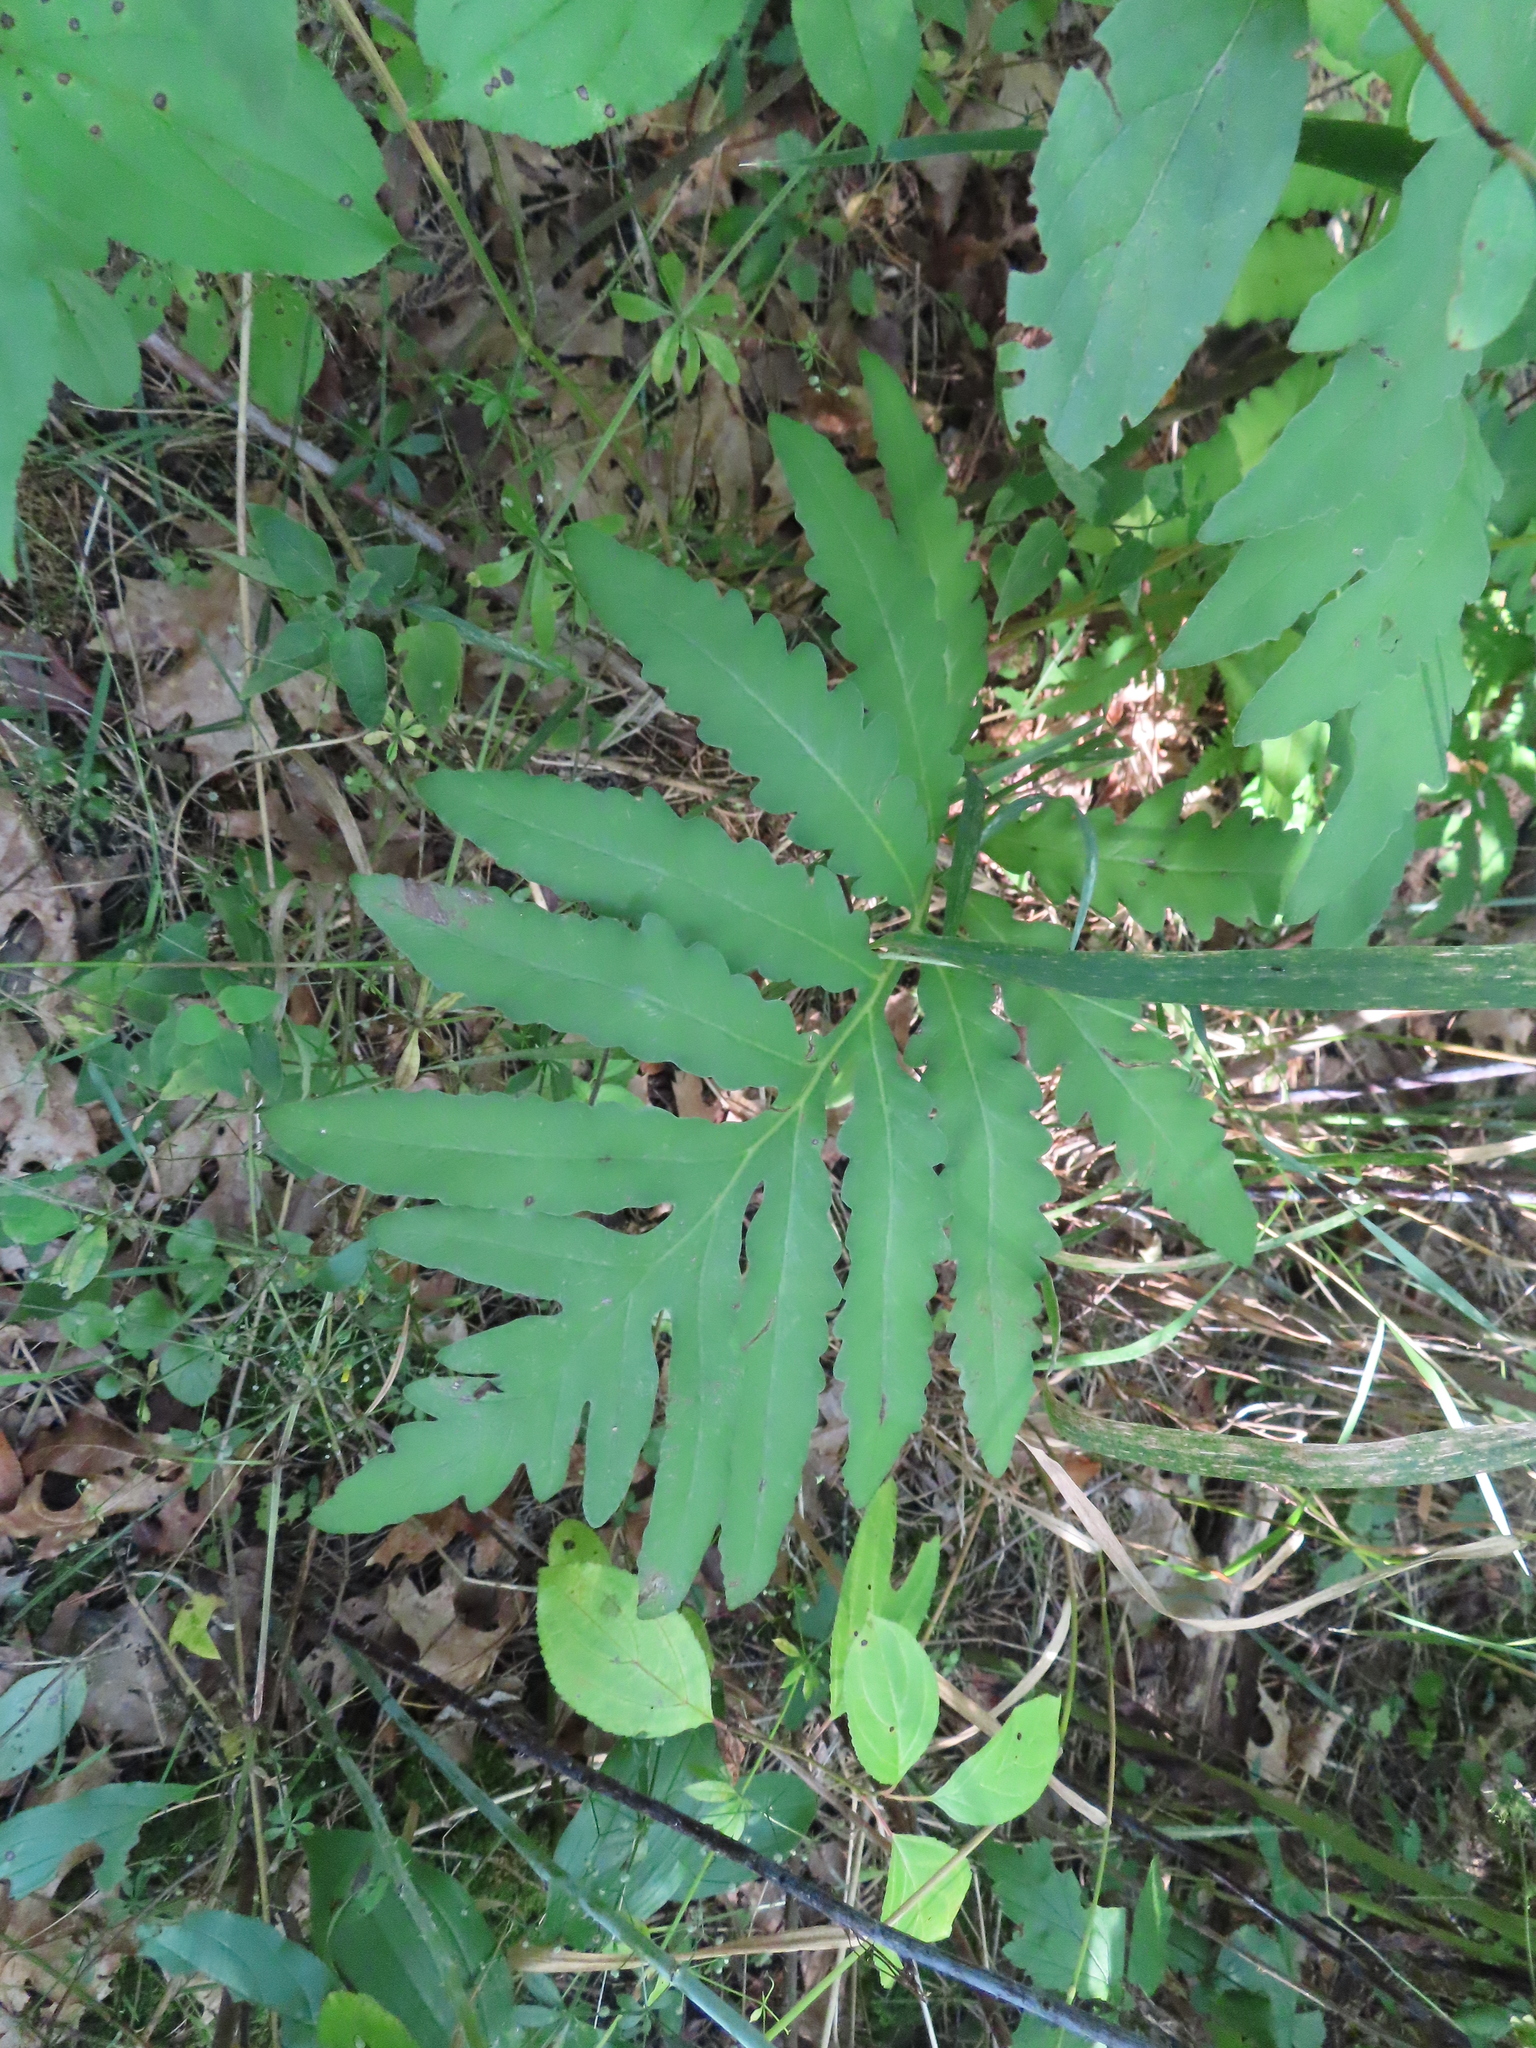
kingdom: Plantae
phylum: Tracheophyta
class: Polypodiopsida
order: Polypodiales
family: Onocleaceae
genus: Onoclea
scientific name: Onoclea sensibilis
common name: Sensitive fern
